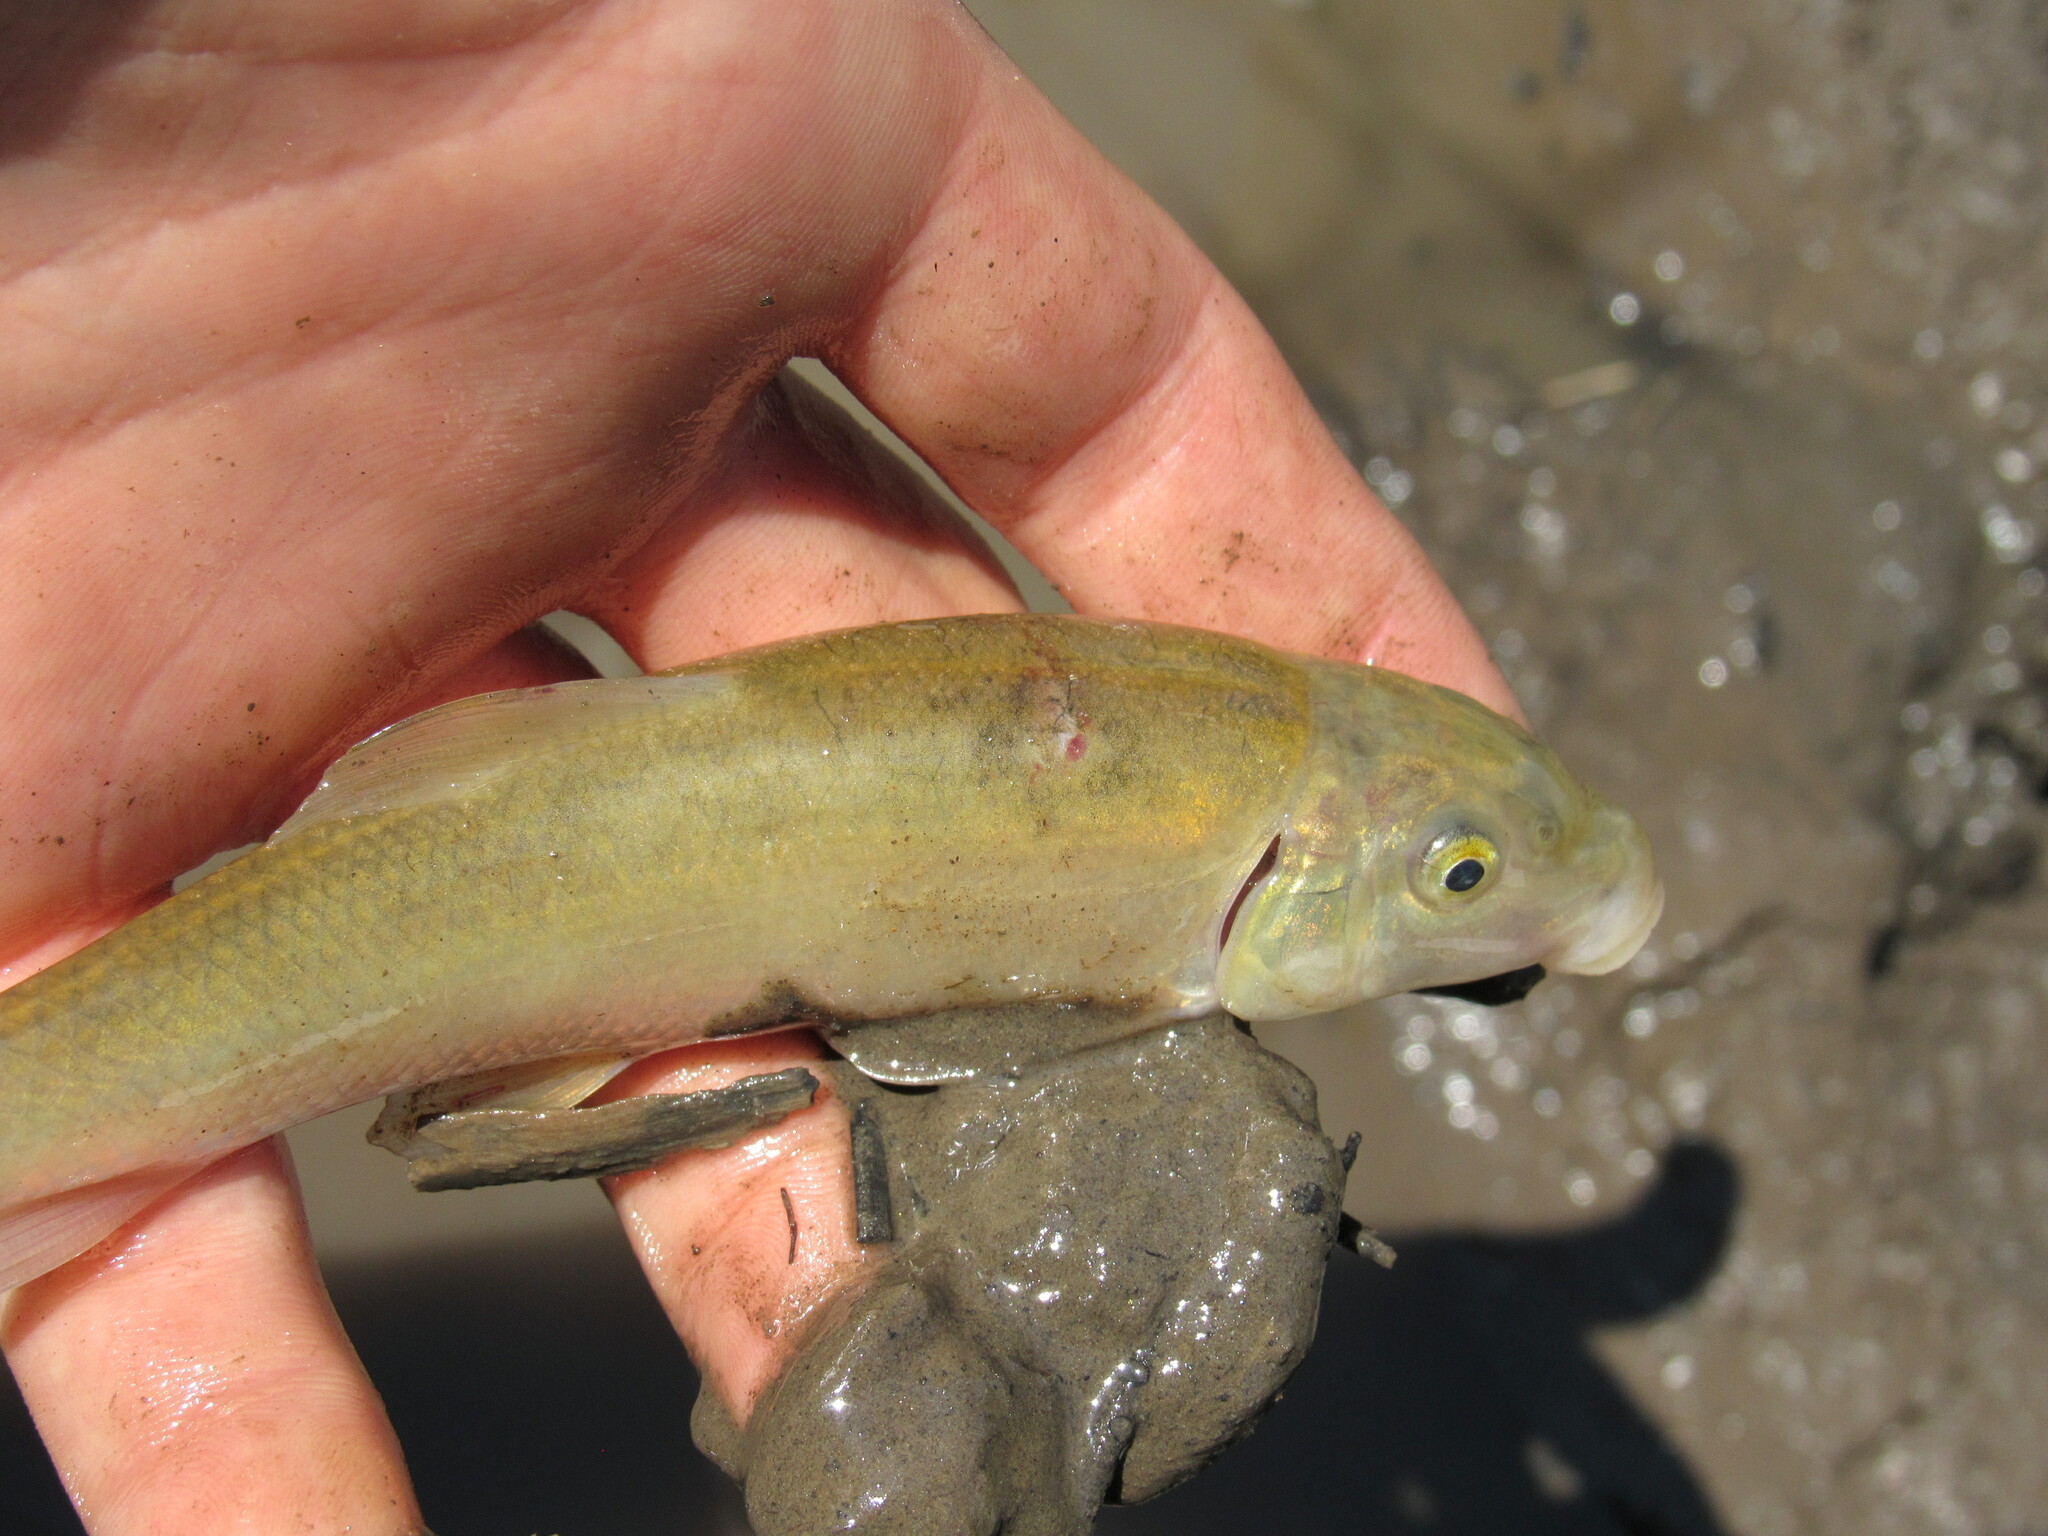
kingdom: Animalia
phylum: Chordata
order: Cypriniformes
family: Catostomidae
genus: Catostomus
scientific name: Catostomus commersonii
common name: White sucker
